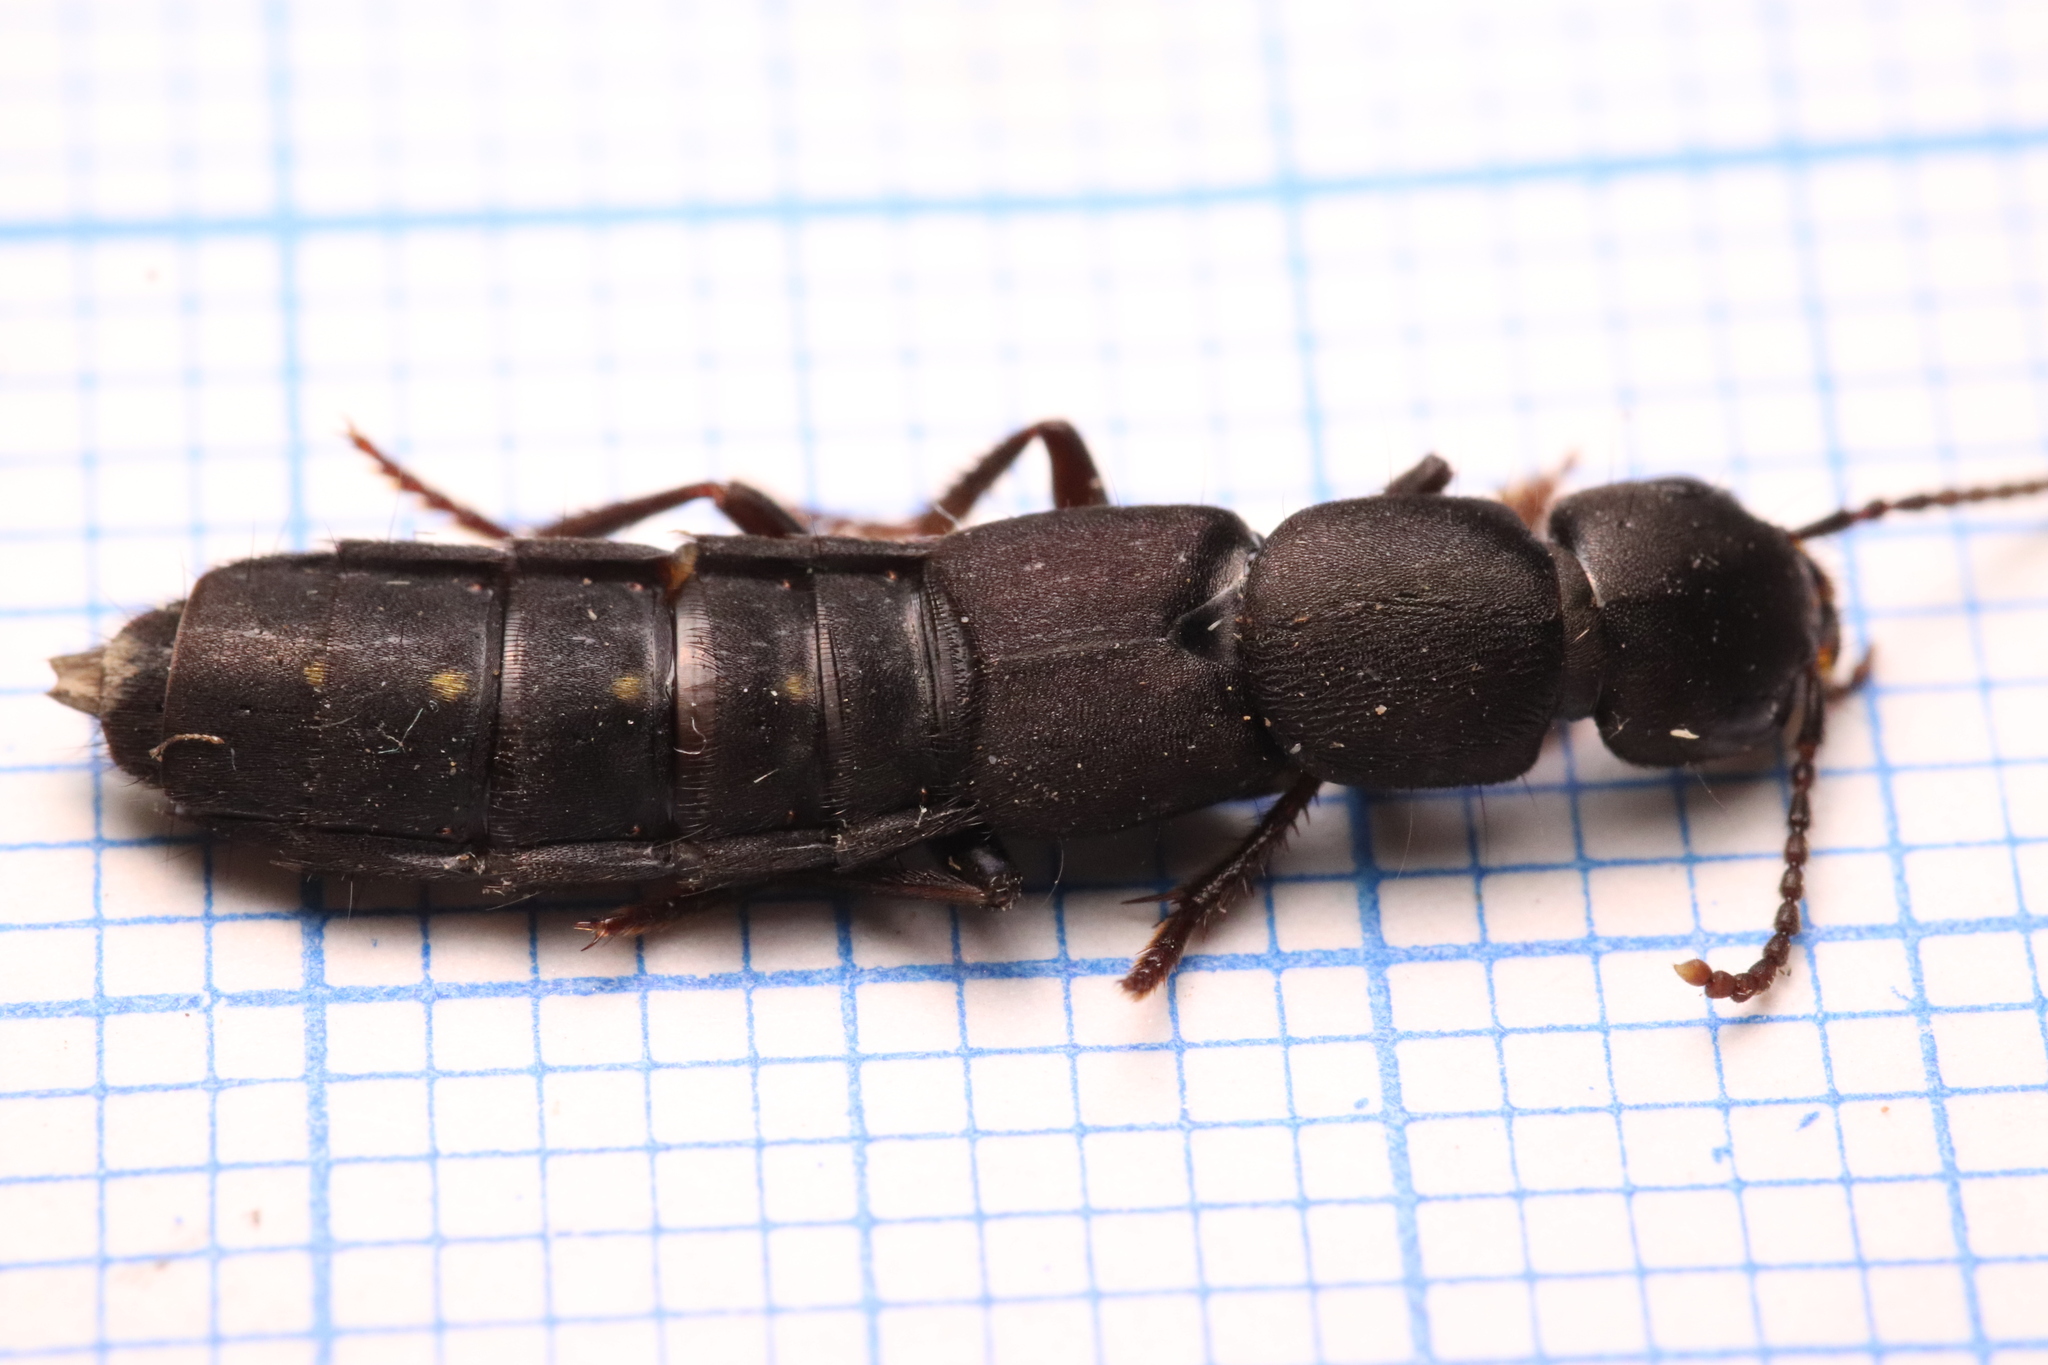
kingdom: Animalia
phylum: Arthropoda
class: Insecta
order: Coleoptera
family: Staphylinidae
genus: Ocypus
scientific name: Ocypus aethiops
